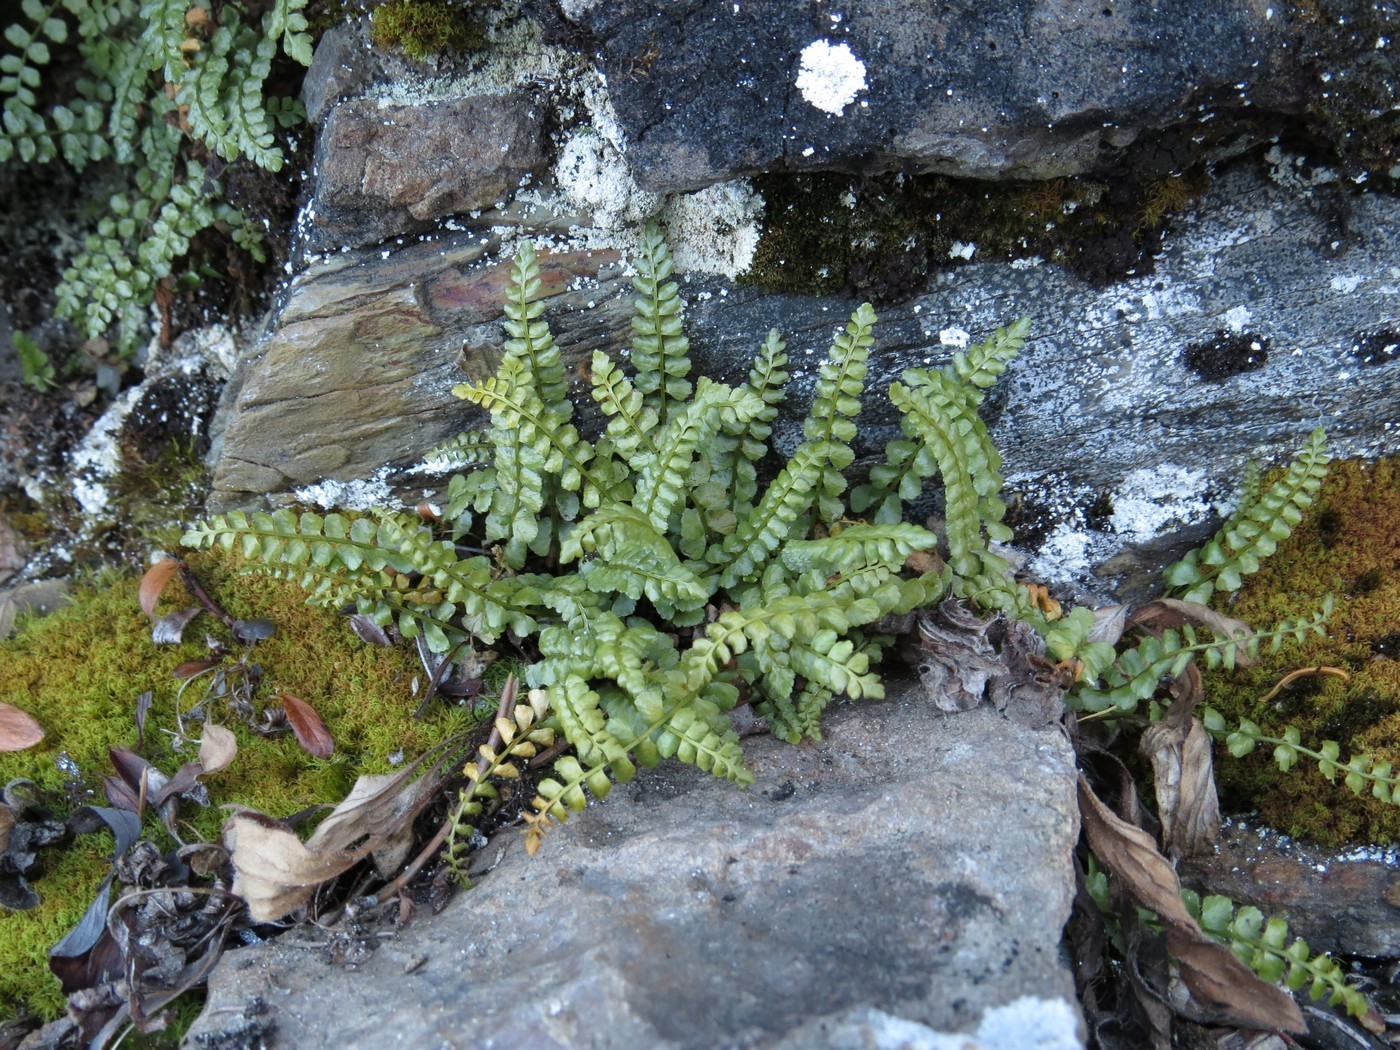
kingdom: Plantae
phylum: Tracheophyta
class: Polypodiopsida
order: Polypodiales
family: Aspleniaceae
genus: Asplenium
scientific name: Asplenium viride
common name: Green spleenwort
